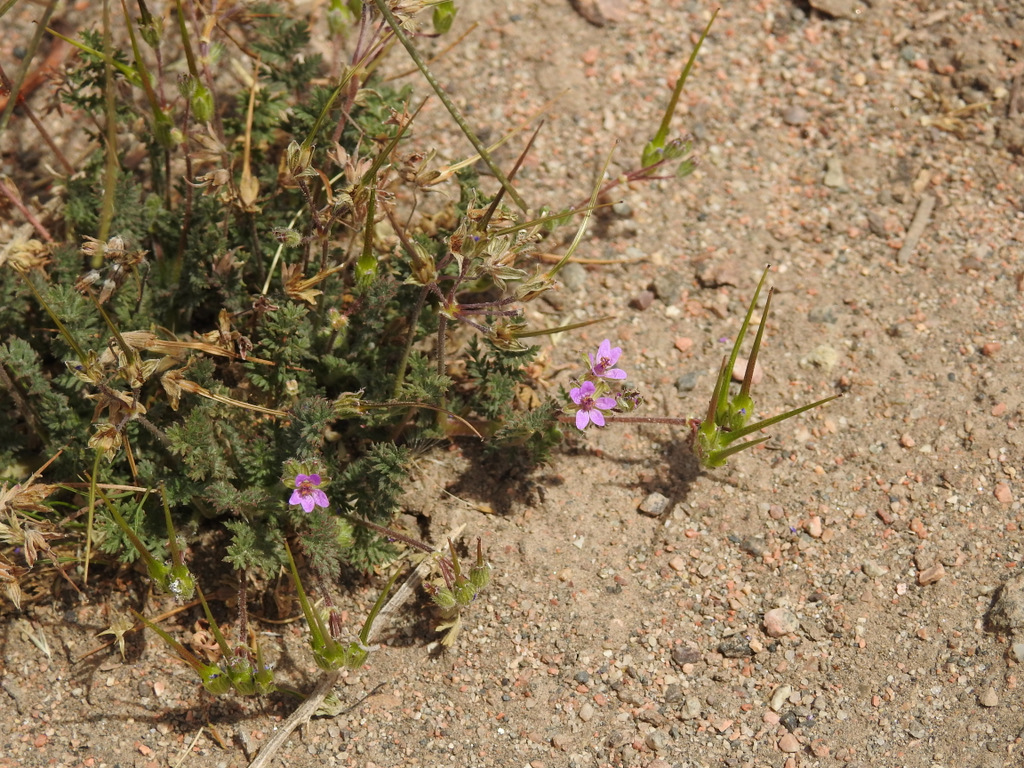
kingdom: Plantae
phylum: Tracheophyta
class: Magnoliopsida
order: Geraniales
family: Geraniaceae
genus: Erodium
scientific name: Erodium cicutarium
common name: Common stork's-bill
